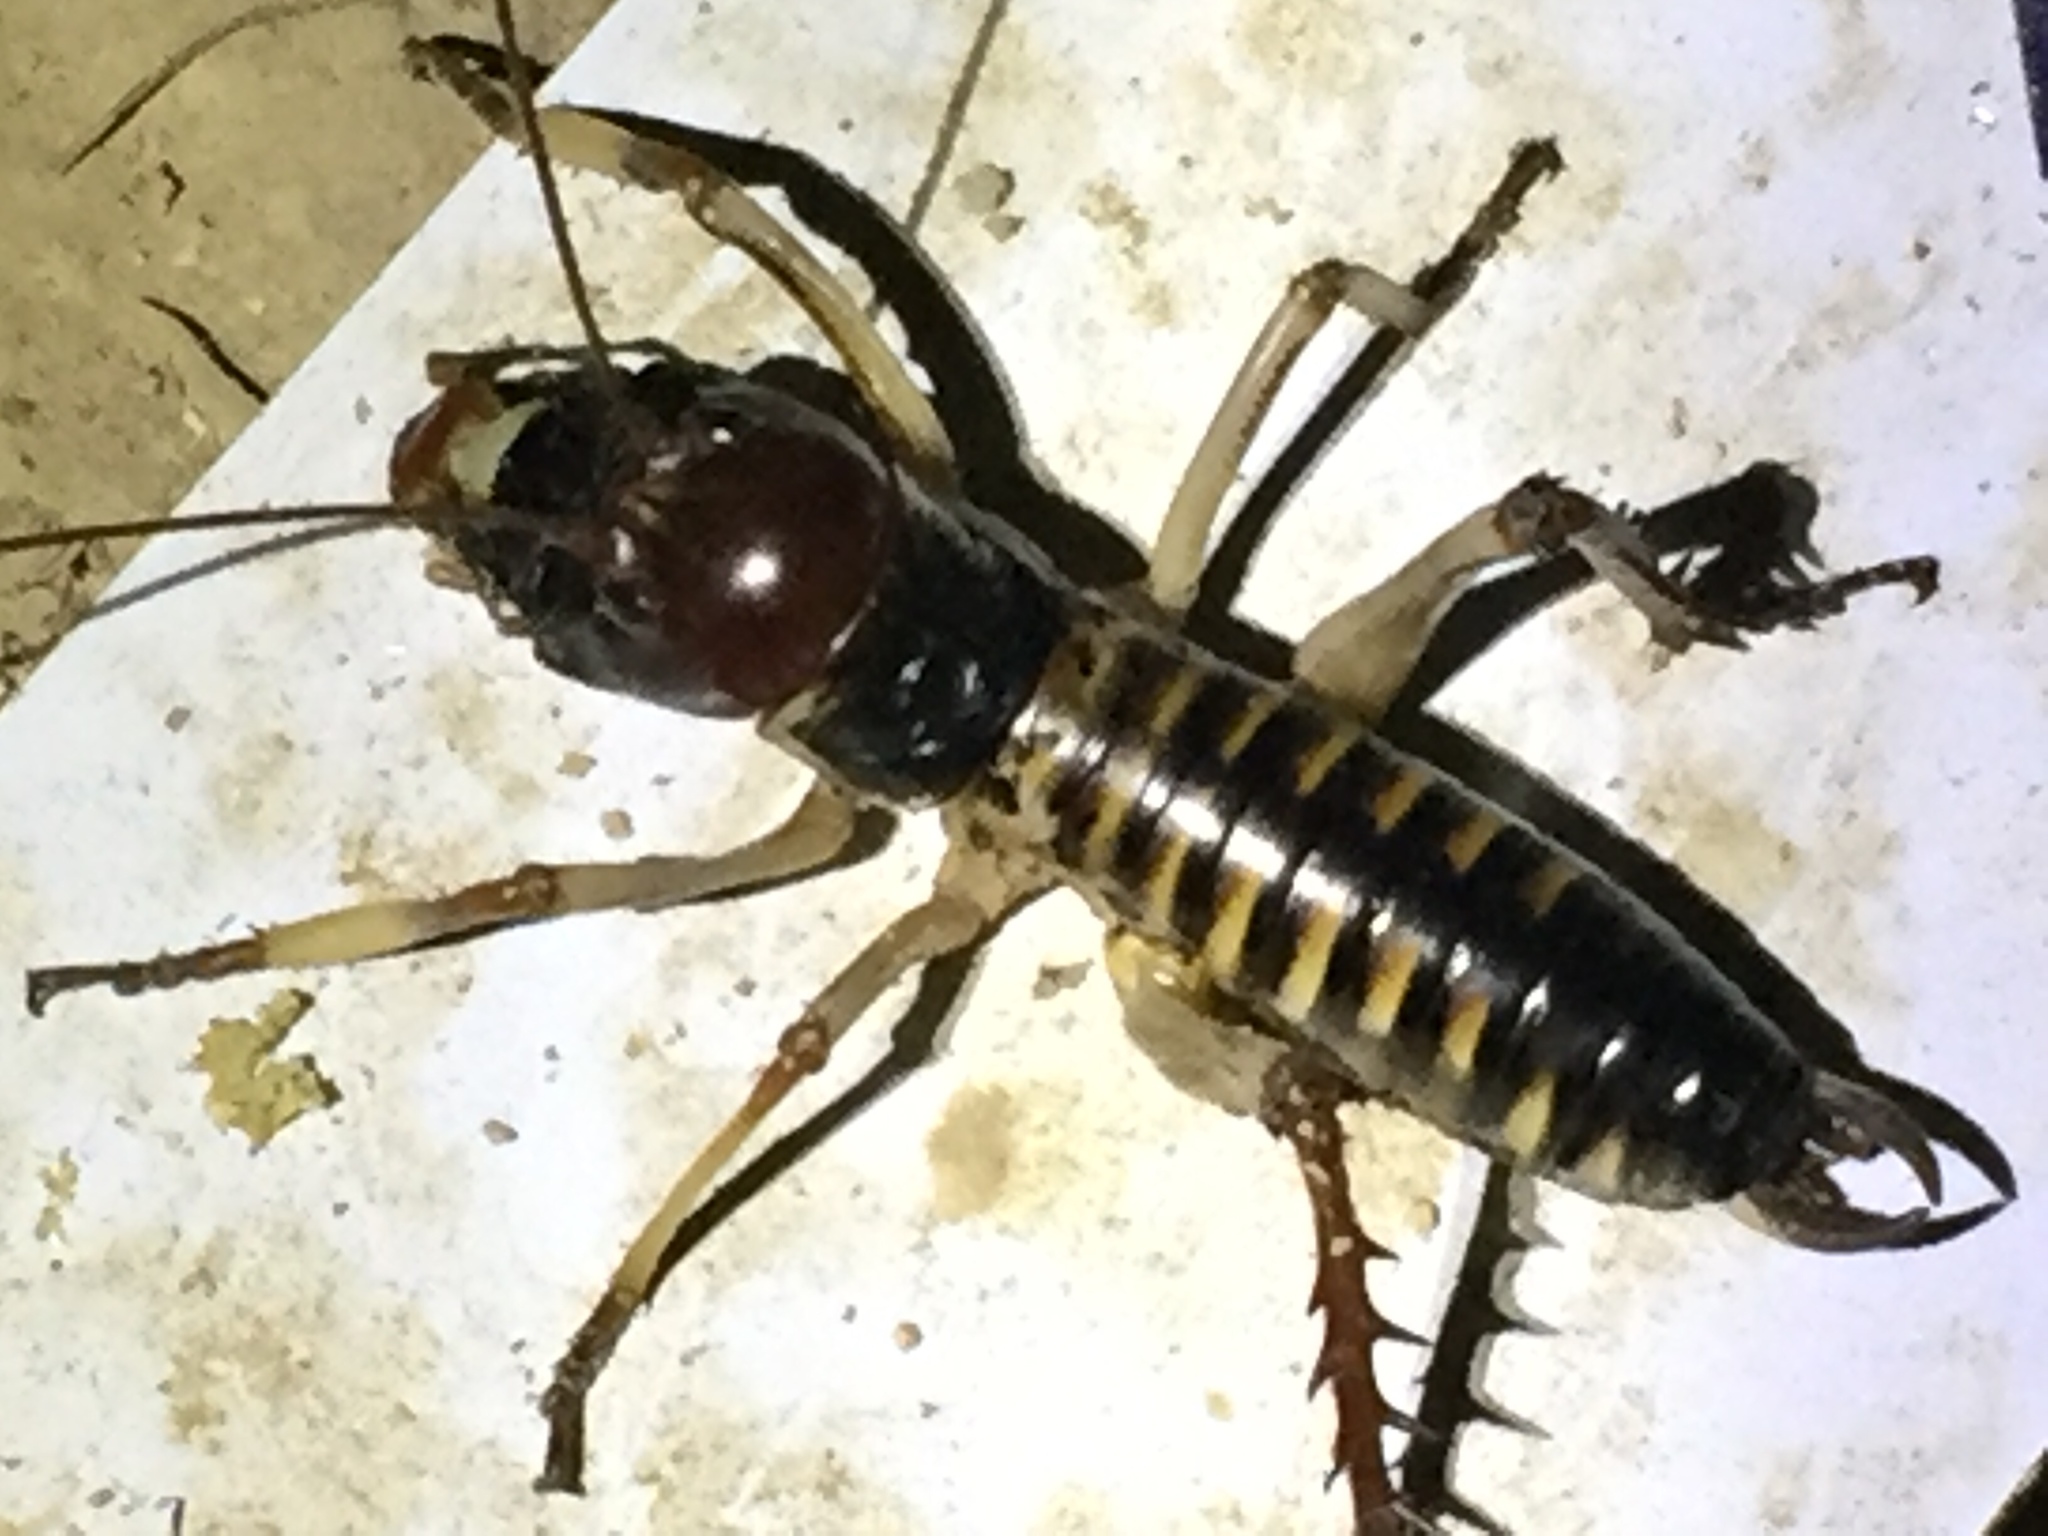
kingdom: Animalia
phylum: Arthropoda
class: Insecta
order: Orthoptera
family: Anostostomatidae
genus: Hemideina
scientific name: Hemideina crassidens
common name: Wellington tree weta
